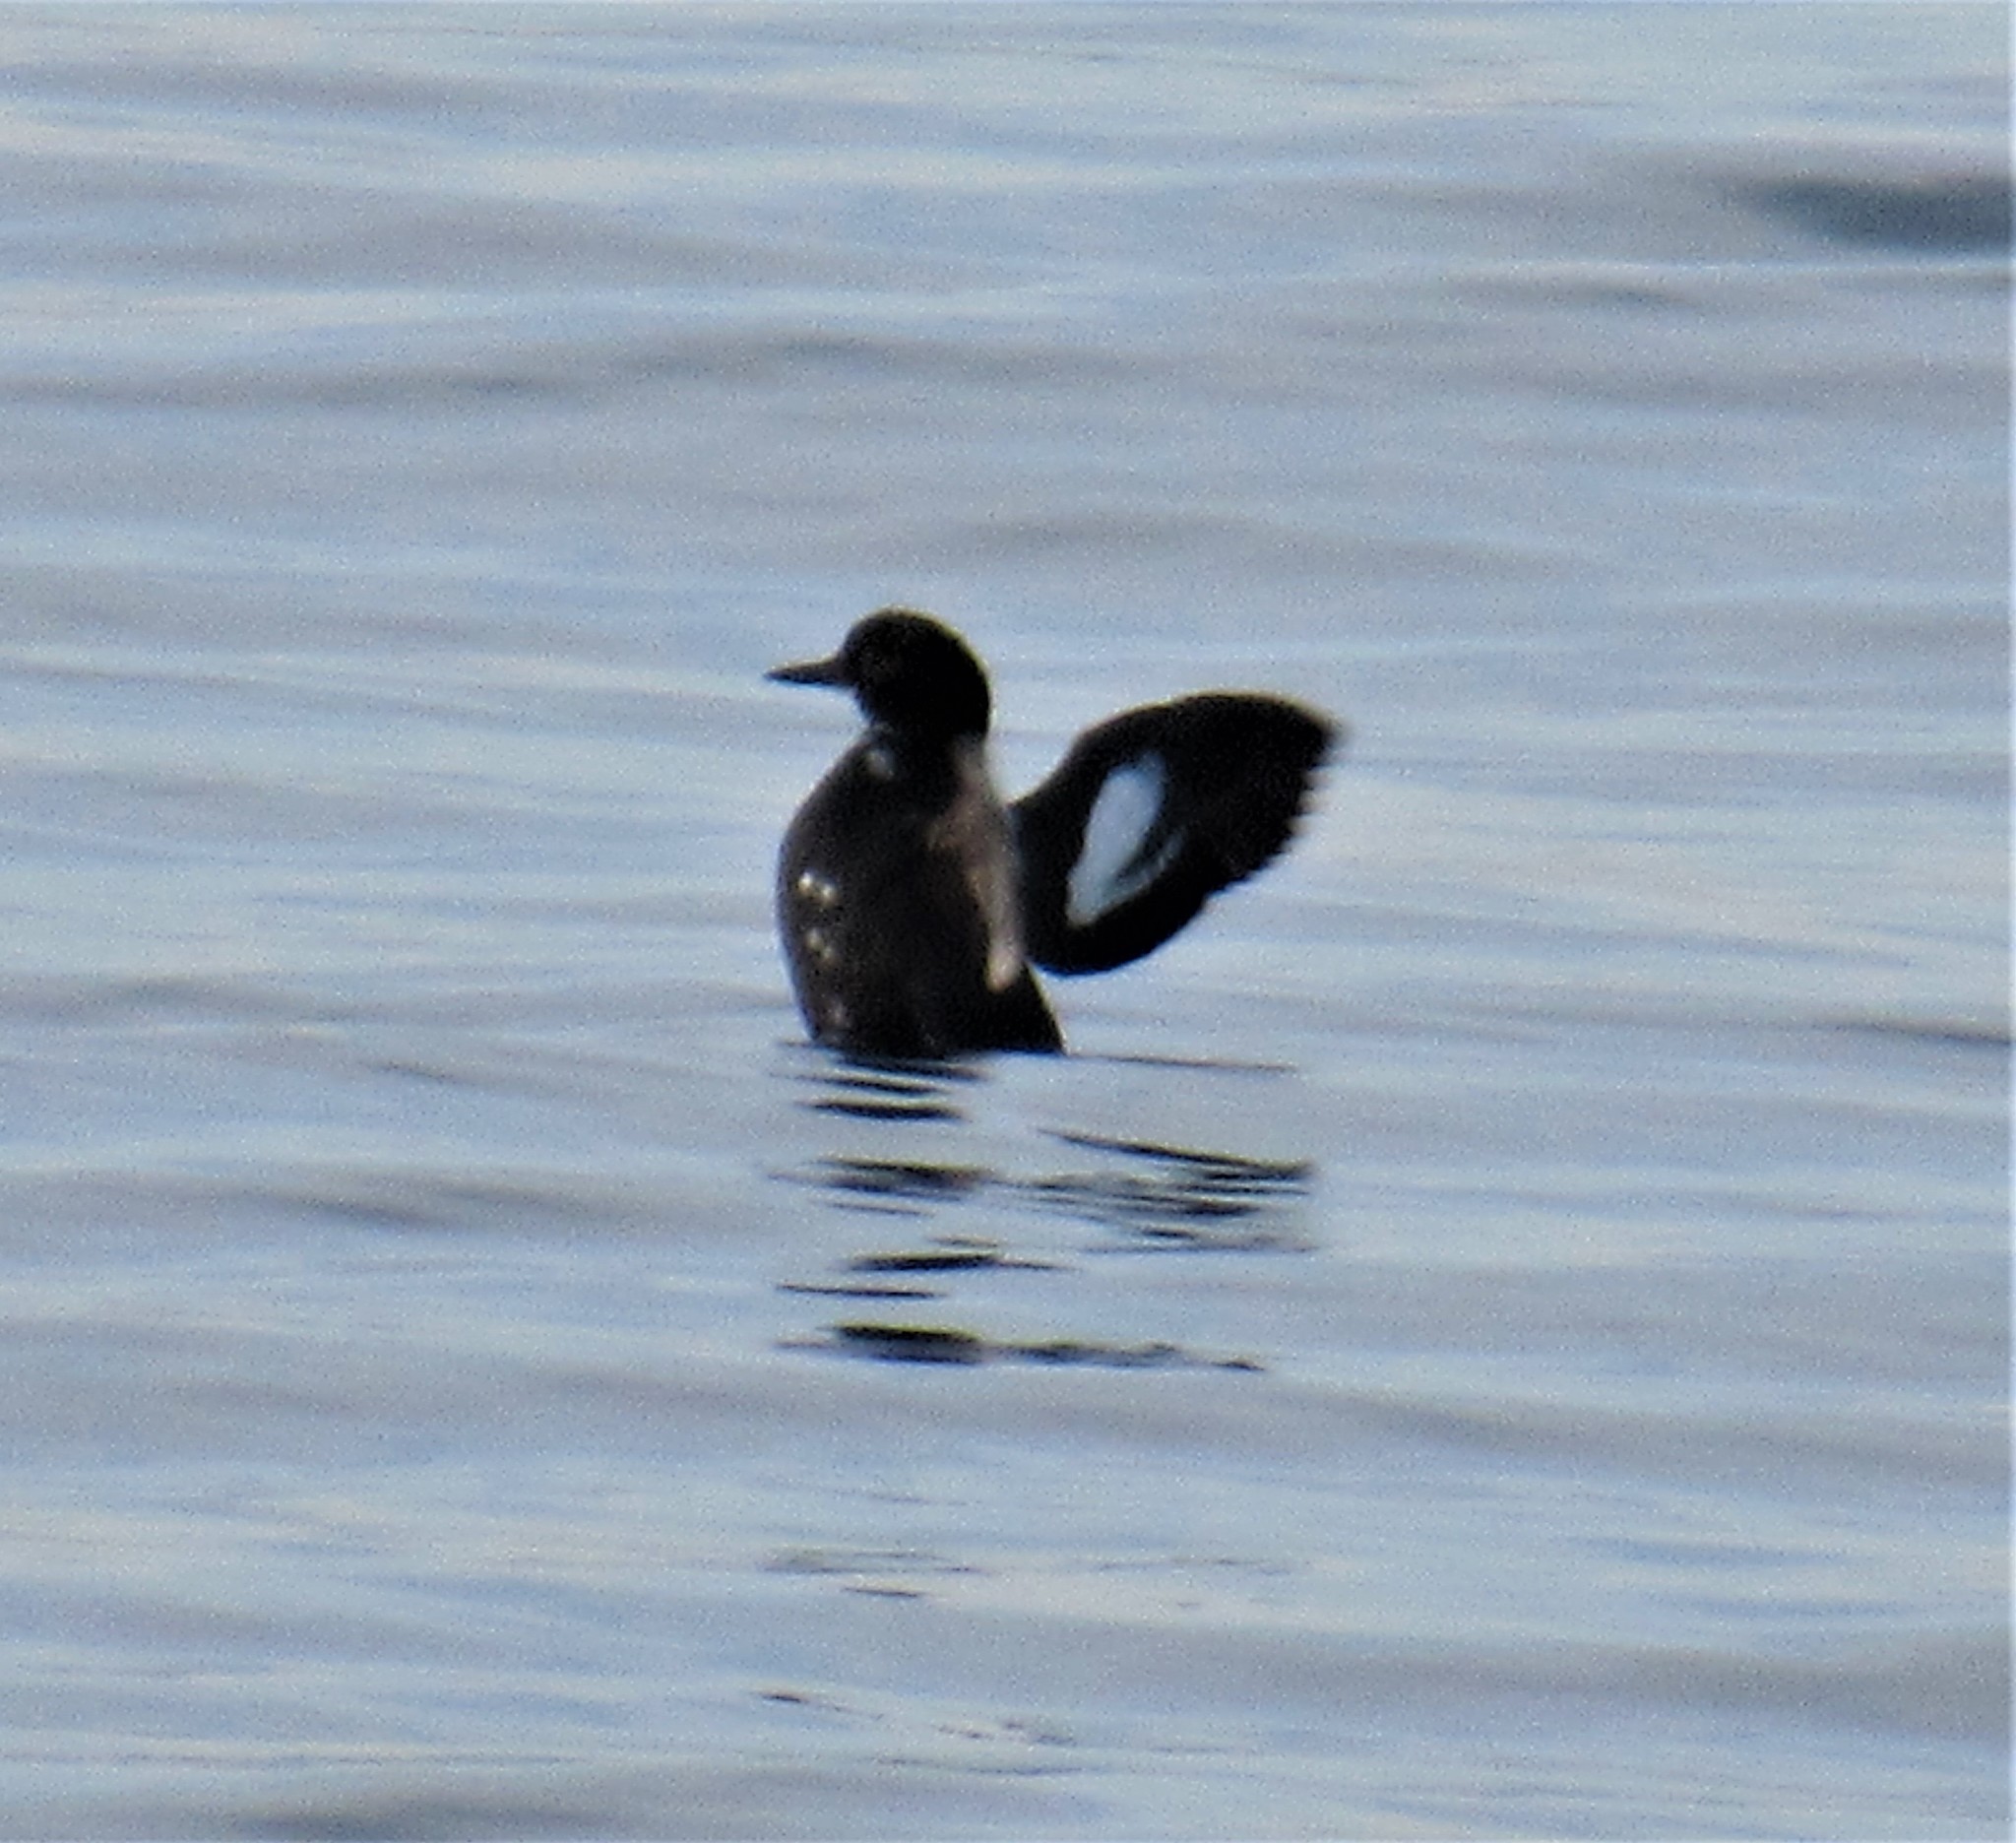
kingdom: Animalia
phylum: Chordata
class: Aves
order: Charadriiformes
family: Alcidae
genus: Cepphus
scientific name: Cepphus columba
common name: Pigeon guillemot
